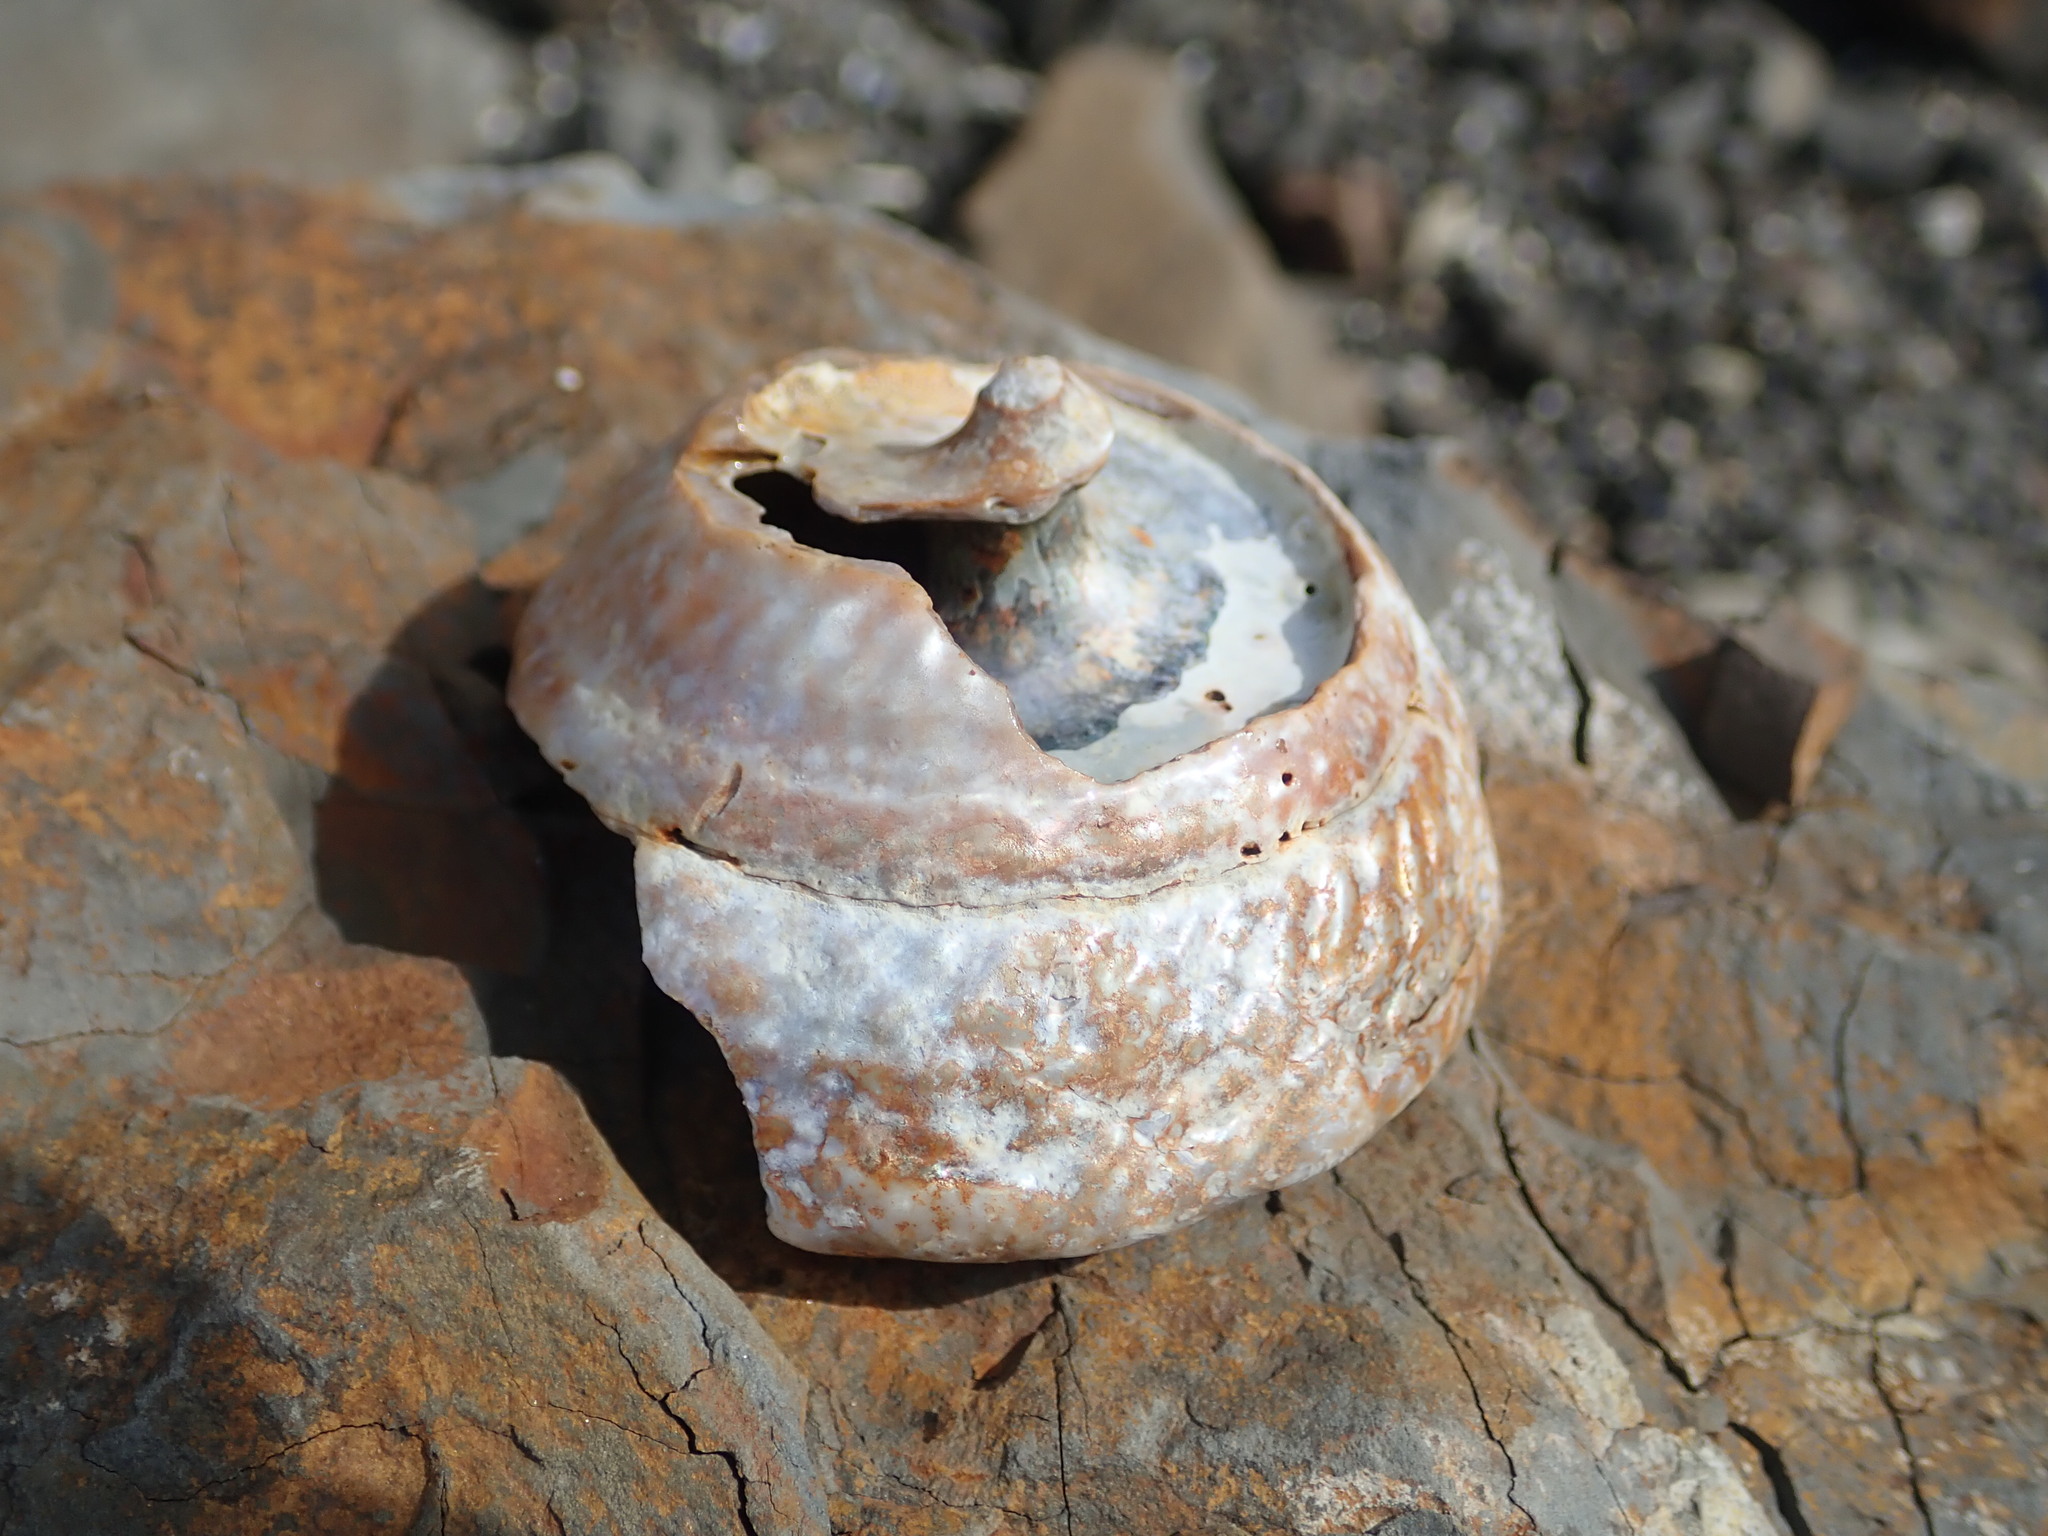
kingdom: Animalia
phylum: Mollusca
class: Gastropoda
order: Trochida
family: Turbinidae
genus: Pomaulax
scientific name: Pomaulax gibberosus
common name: Red turban
